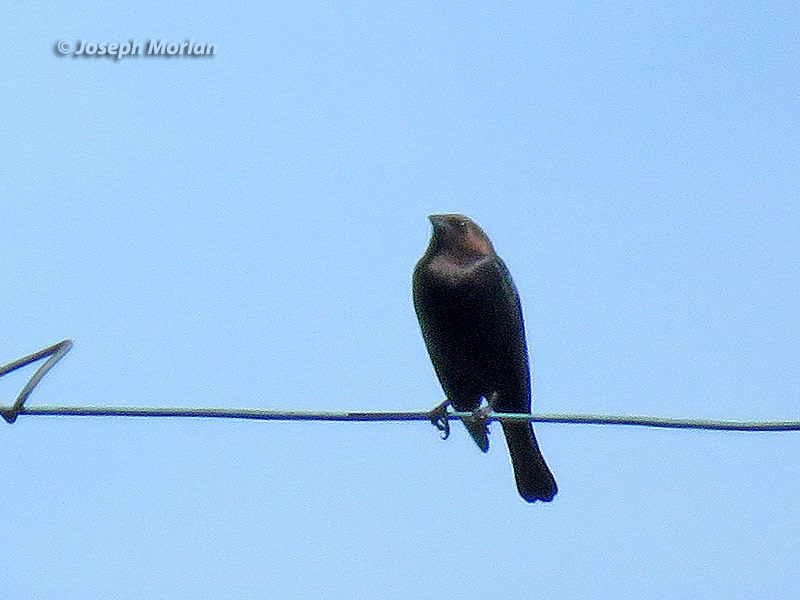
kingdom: Animalia
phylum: Chordata
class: Aves
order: Passeriformes
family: Icteridae
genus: Molothrus
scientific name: Molothrus ater
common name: Brown-headed cowbird
